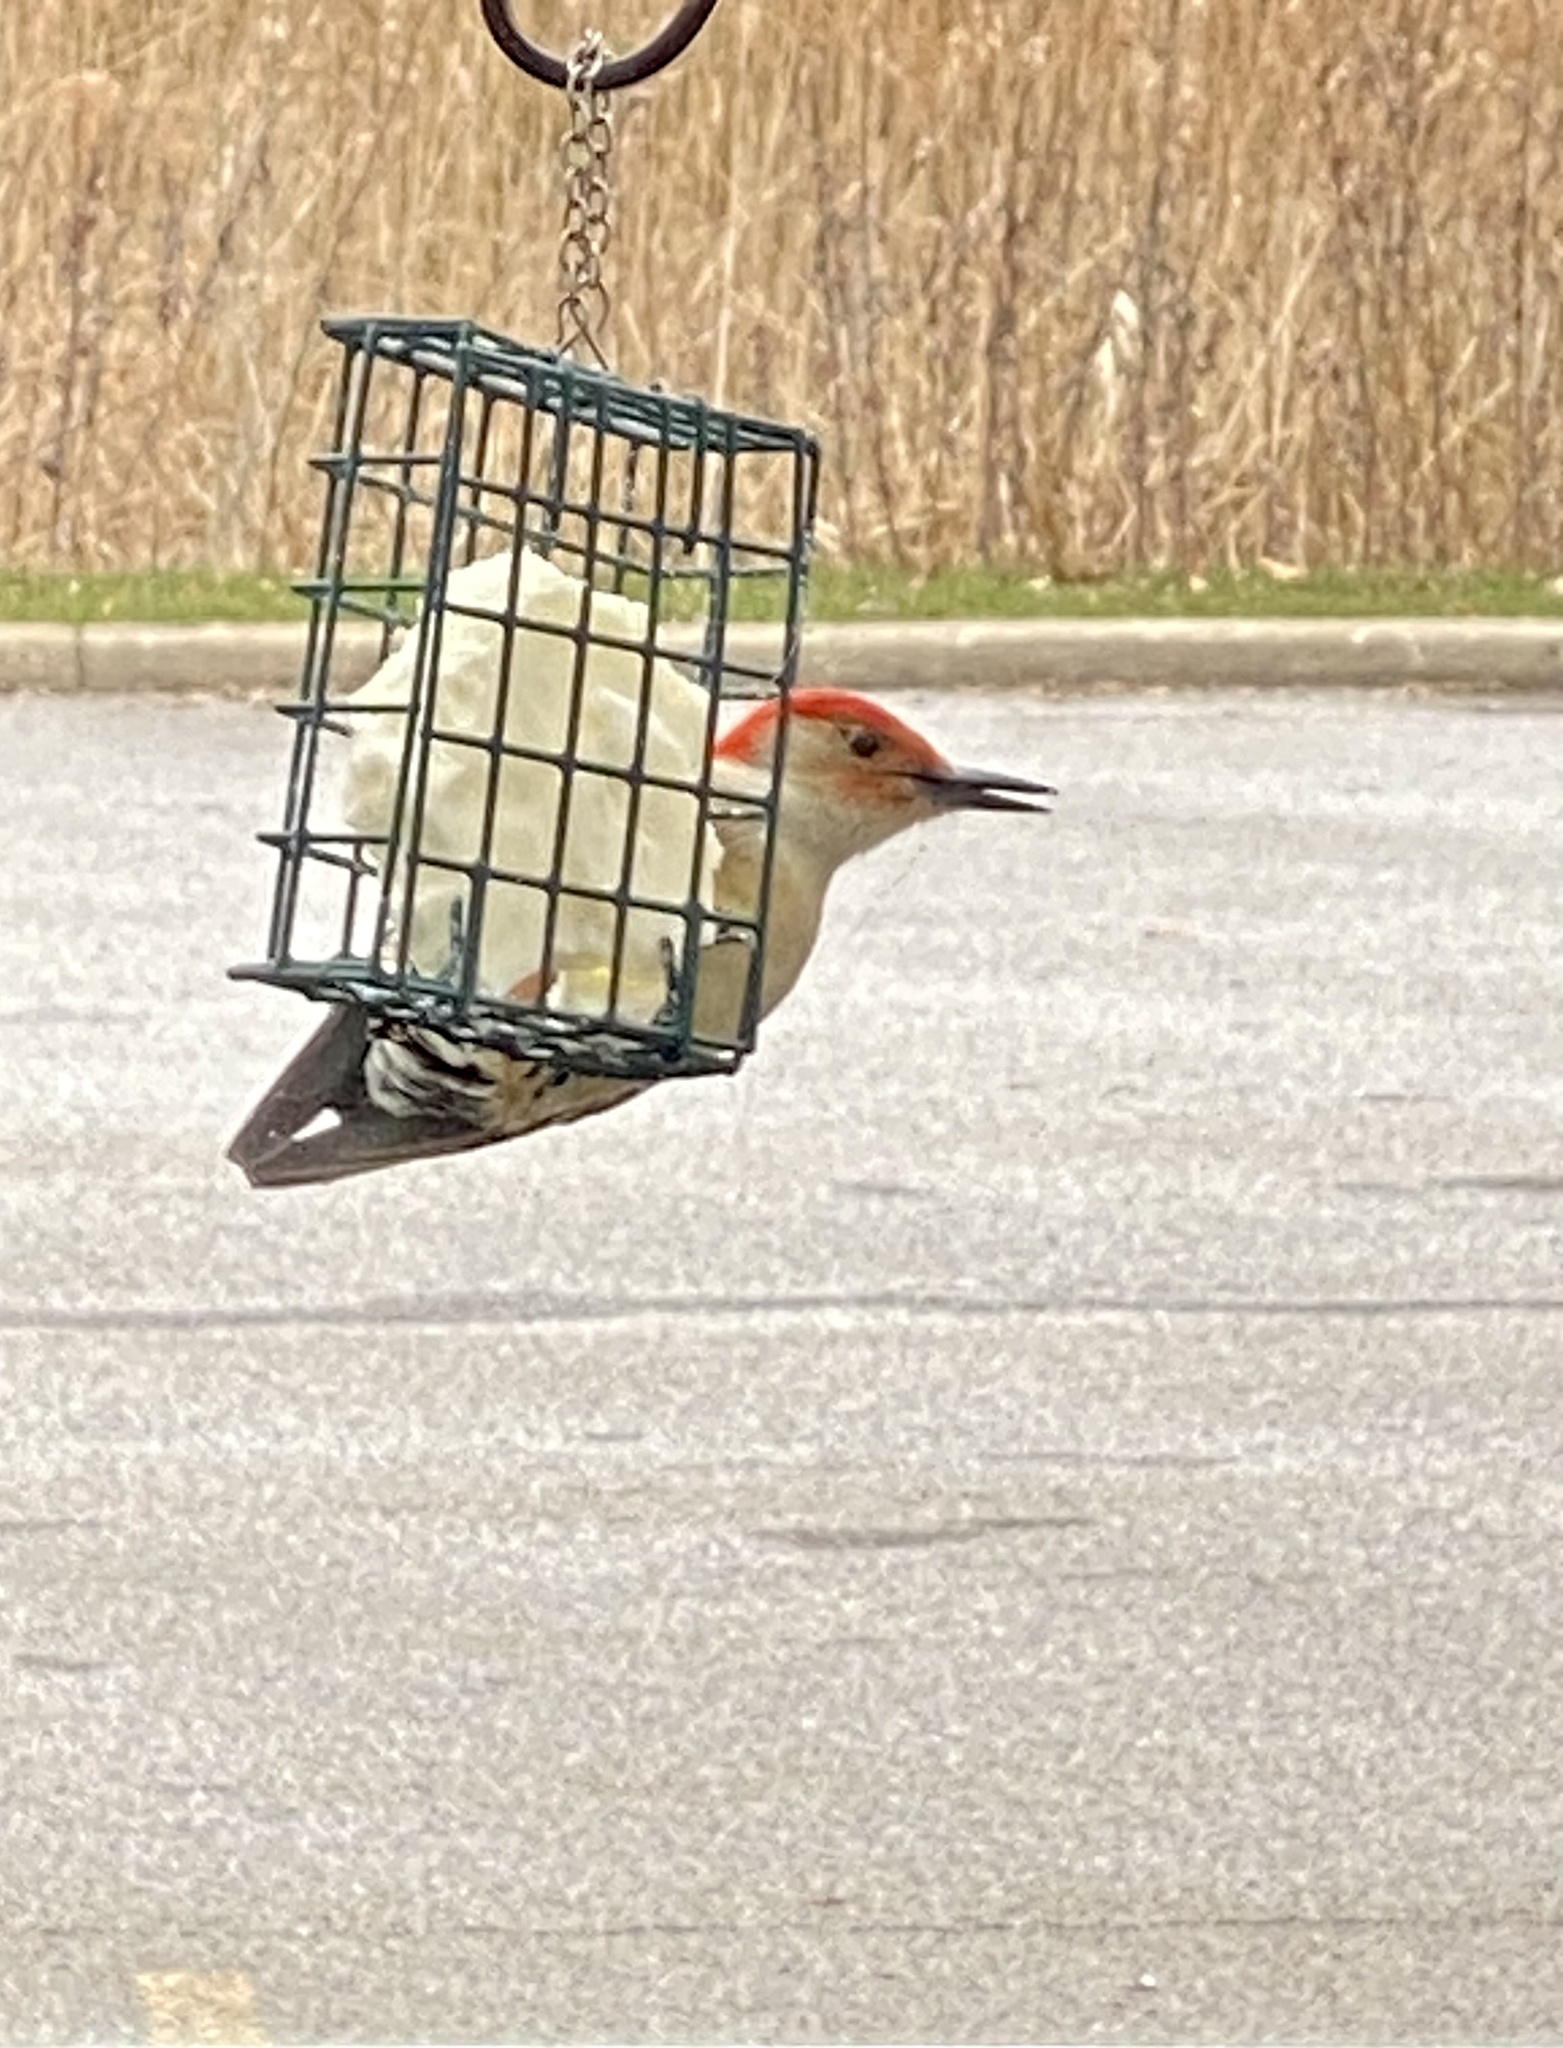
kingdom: Animalia
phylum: Chordata
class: Aves
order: Piciformes
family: Picidae
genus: Melanerpes
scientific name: Melanerpes carolinus
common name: Red-bellied woodpecker
